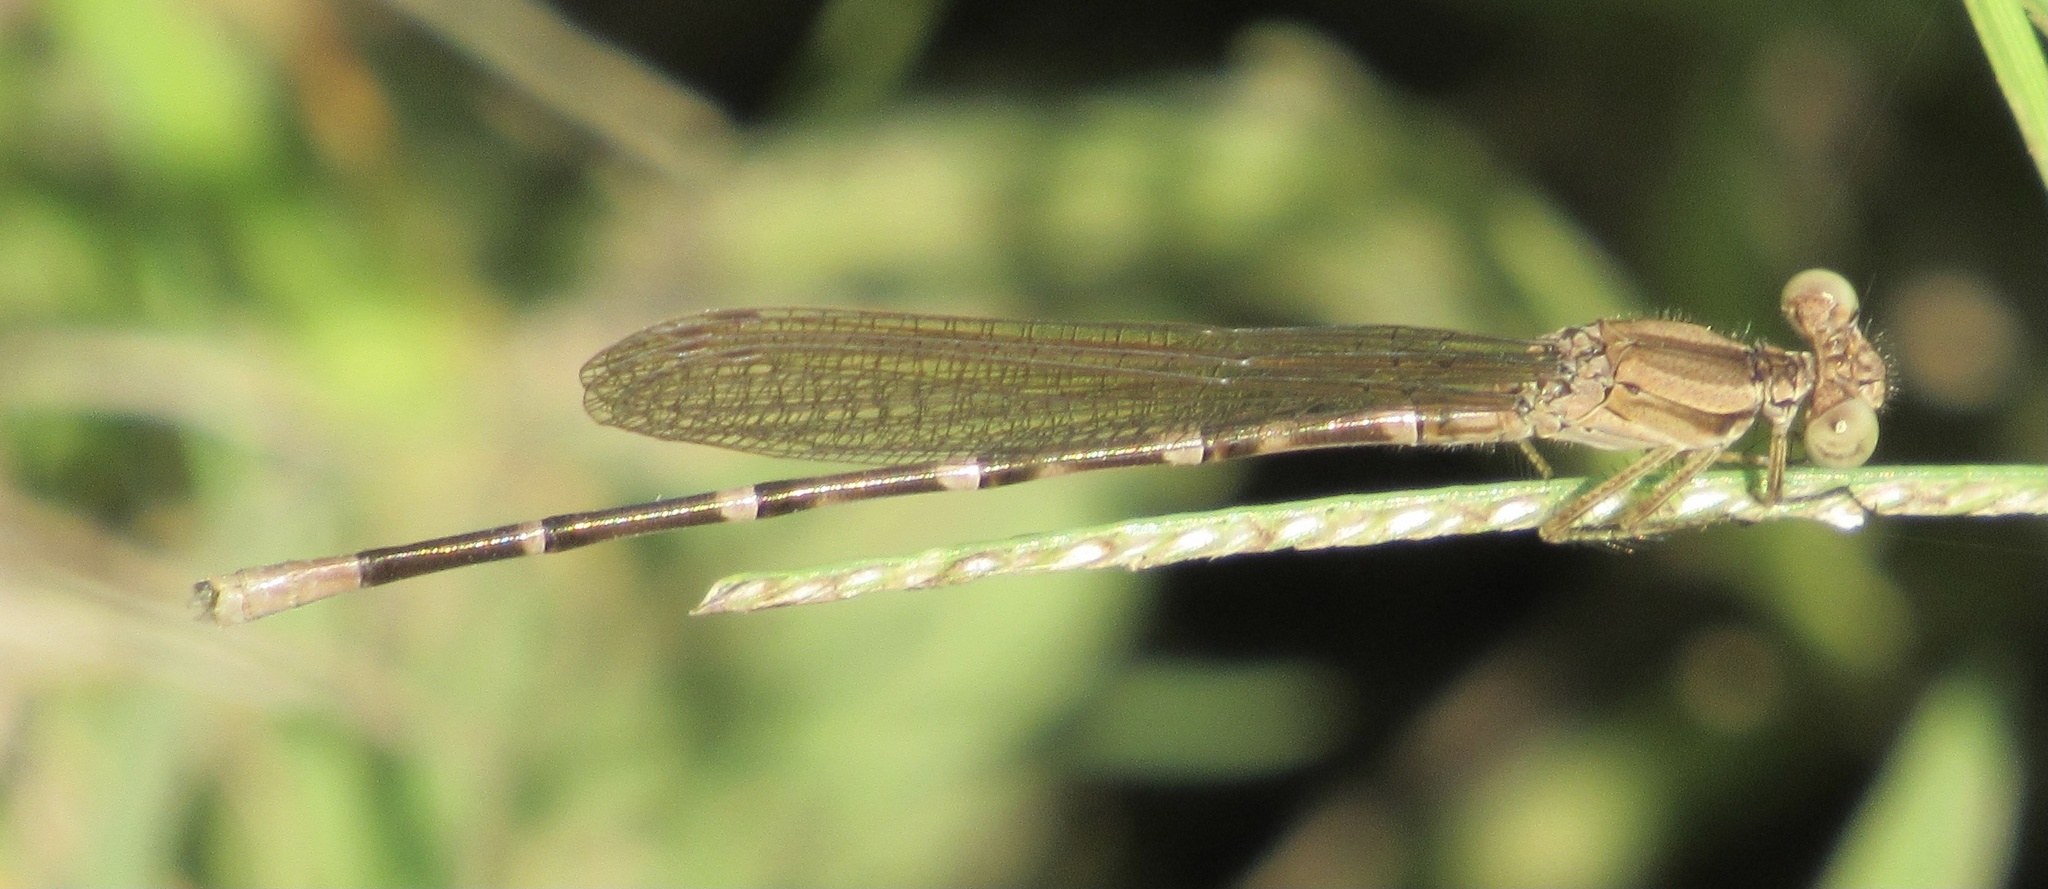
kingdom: Animalia
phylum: Arthropoda
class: Insecta
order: Odonata
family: Coenagrionidae
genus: Argia
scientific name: Argia sedula
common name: Blue-ringed dancer
